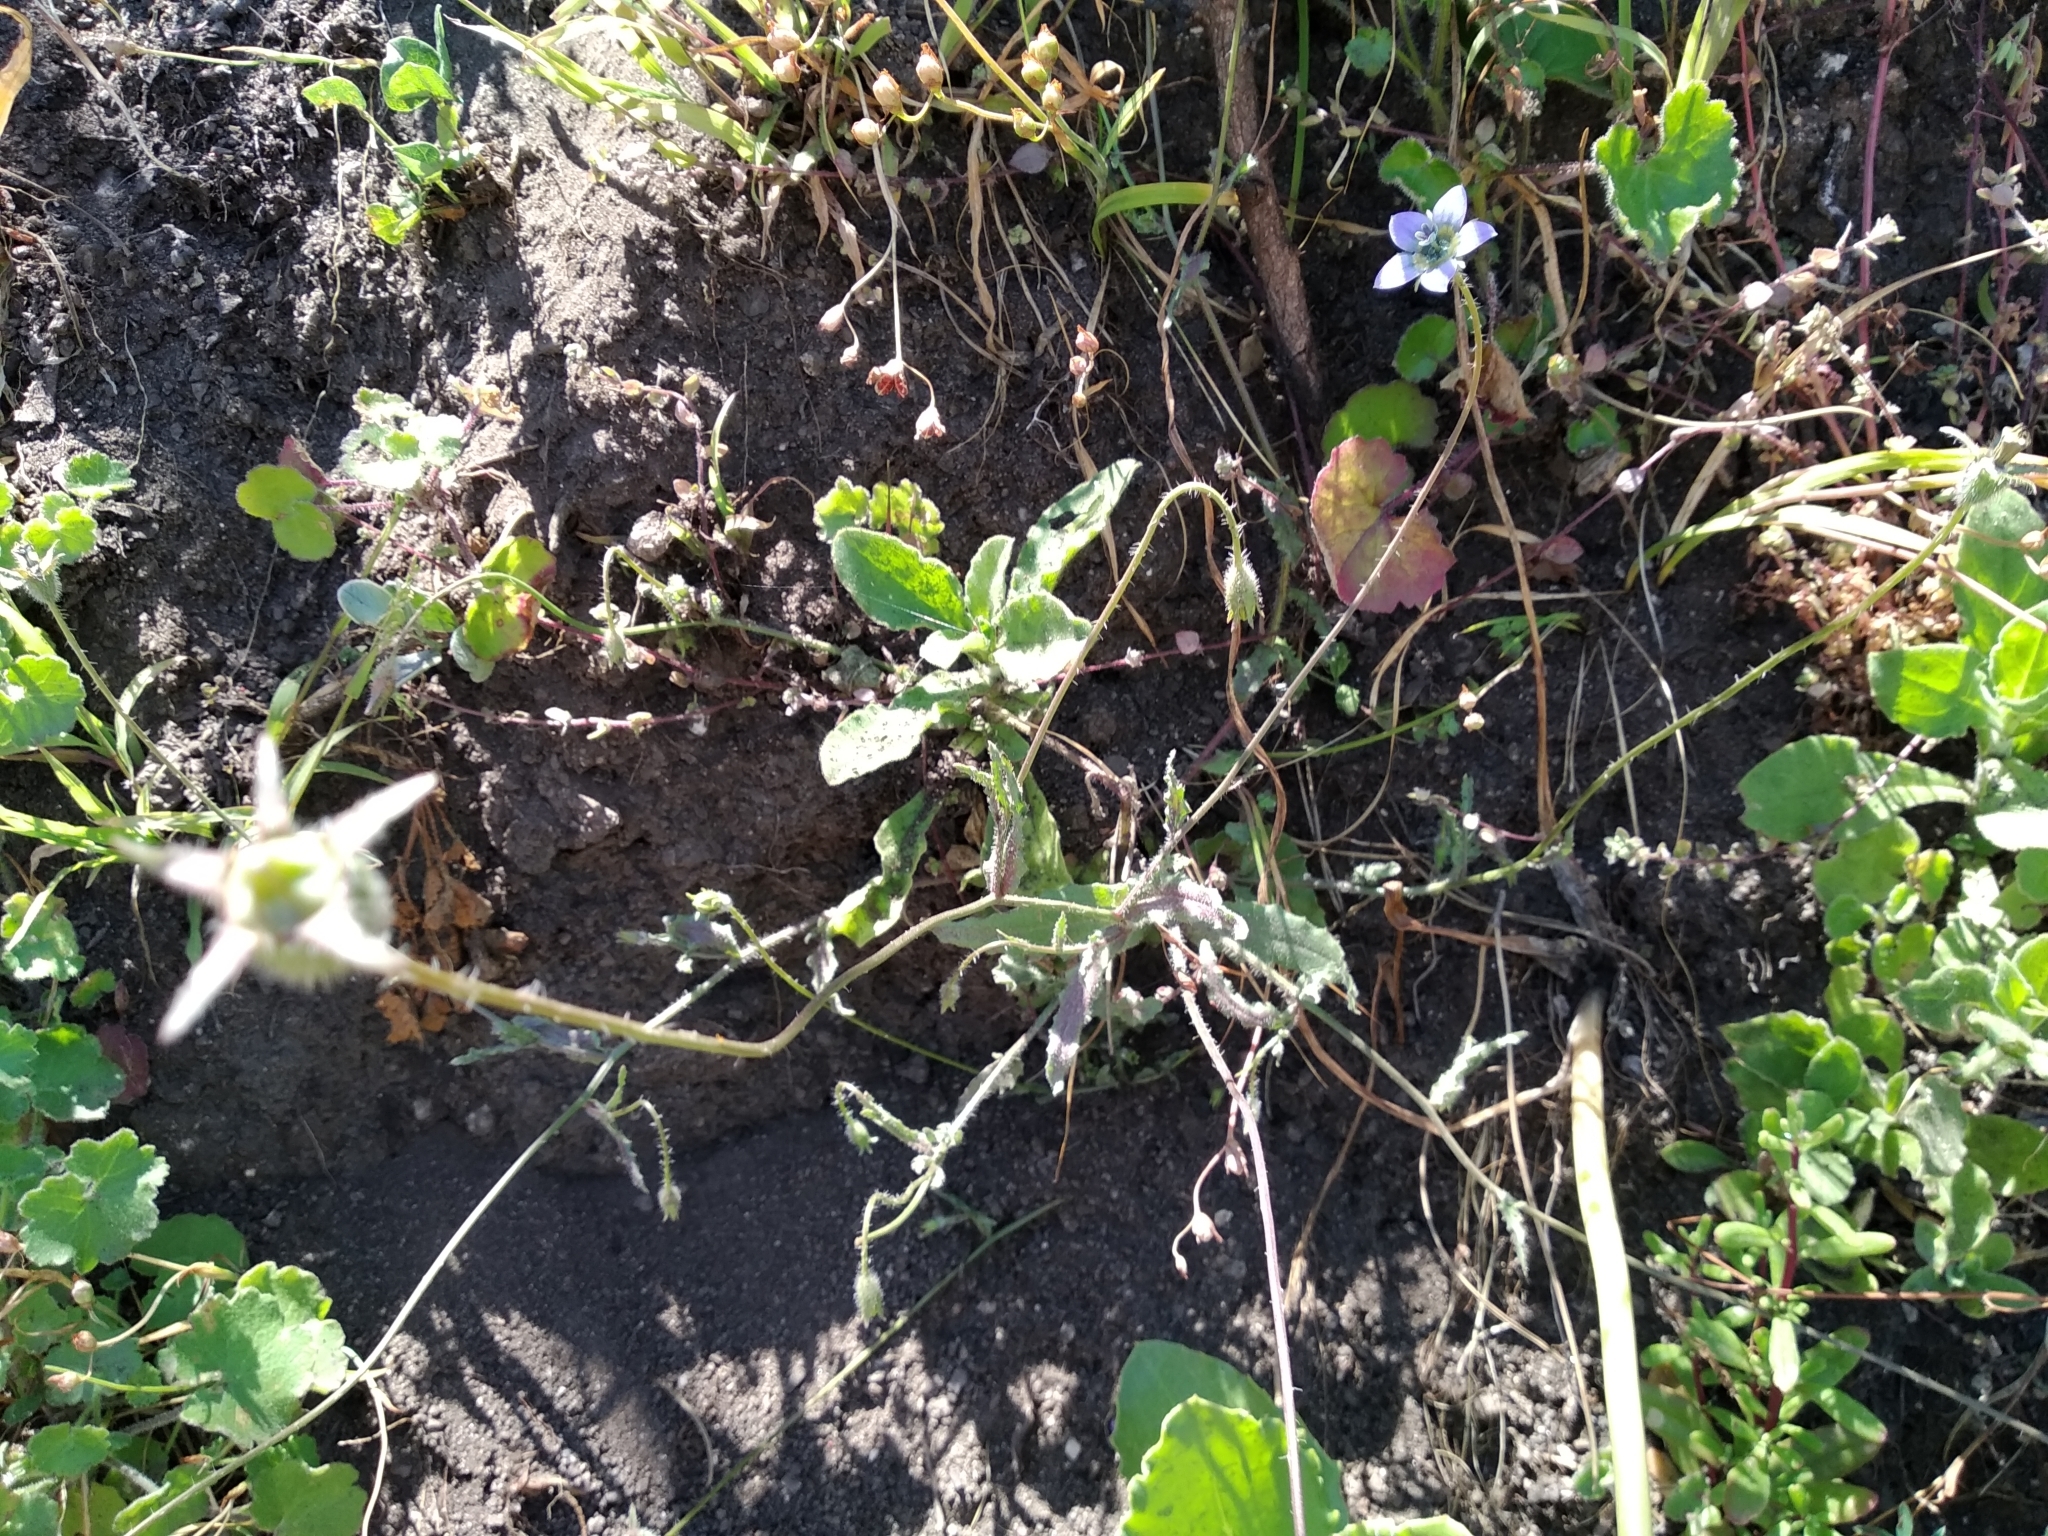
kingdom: Plantae
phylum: Tracheophyta
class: Magnoliopsida
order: Asterales
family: Campanulaceae
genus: Wahlenbergia
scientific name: Wahlenbergia capensis
